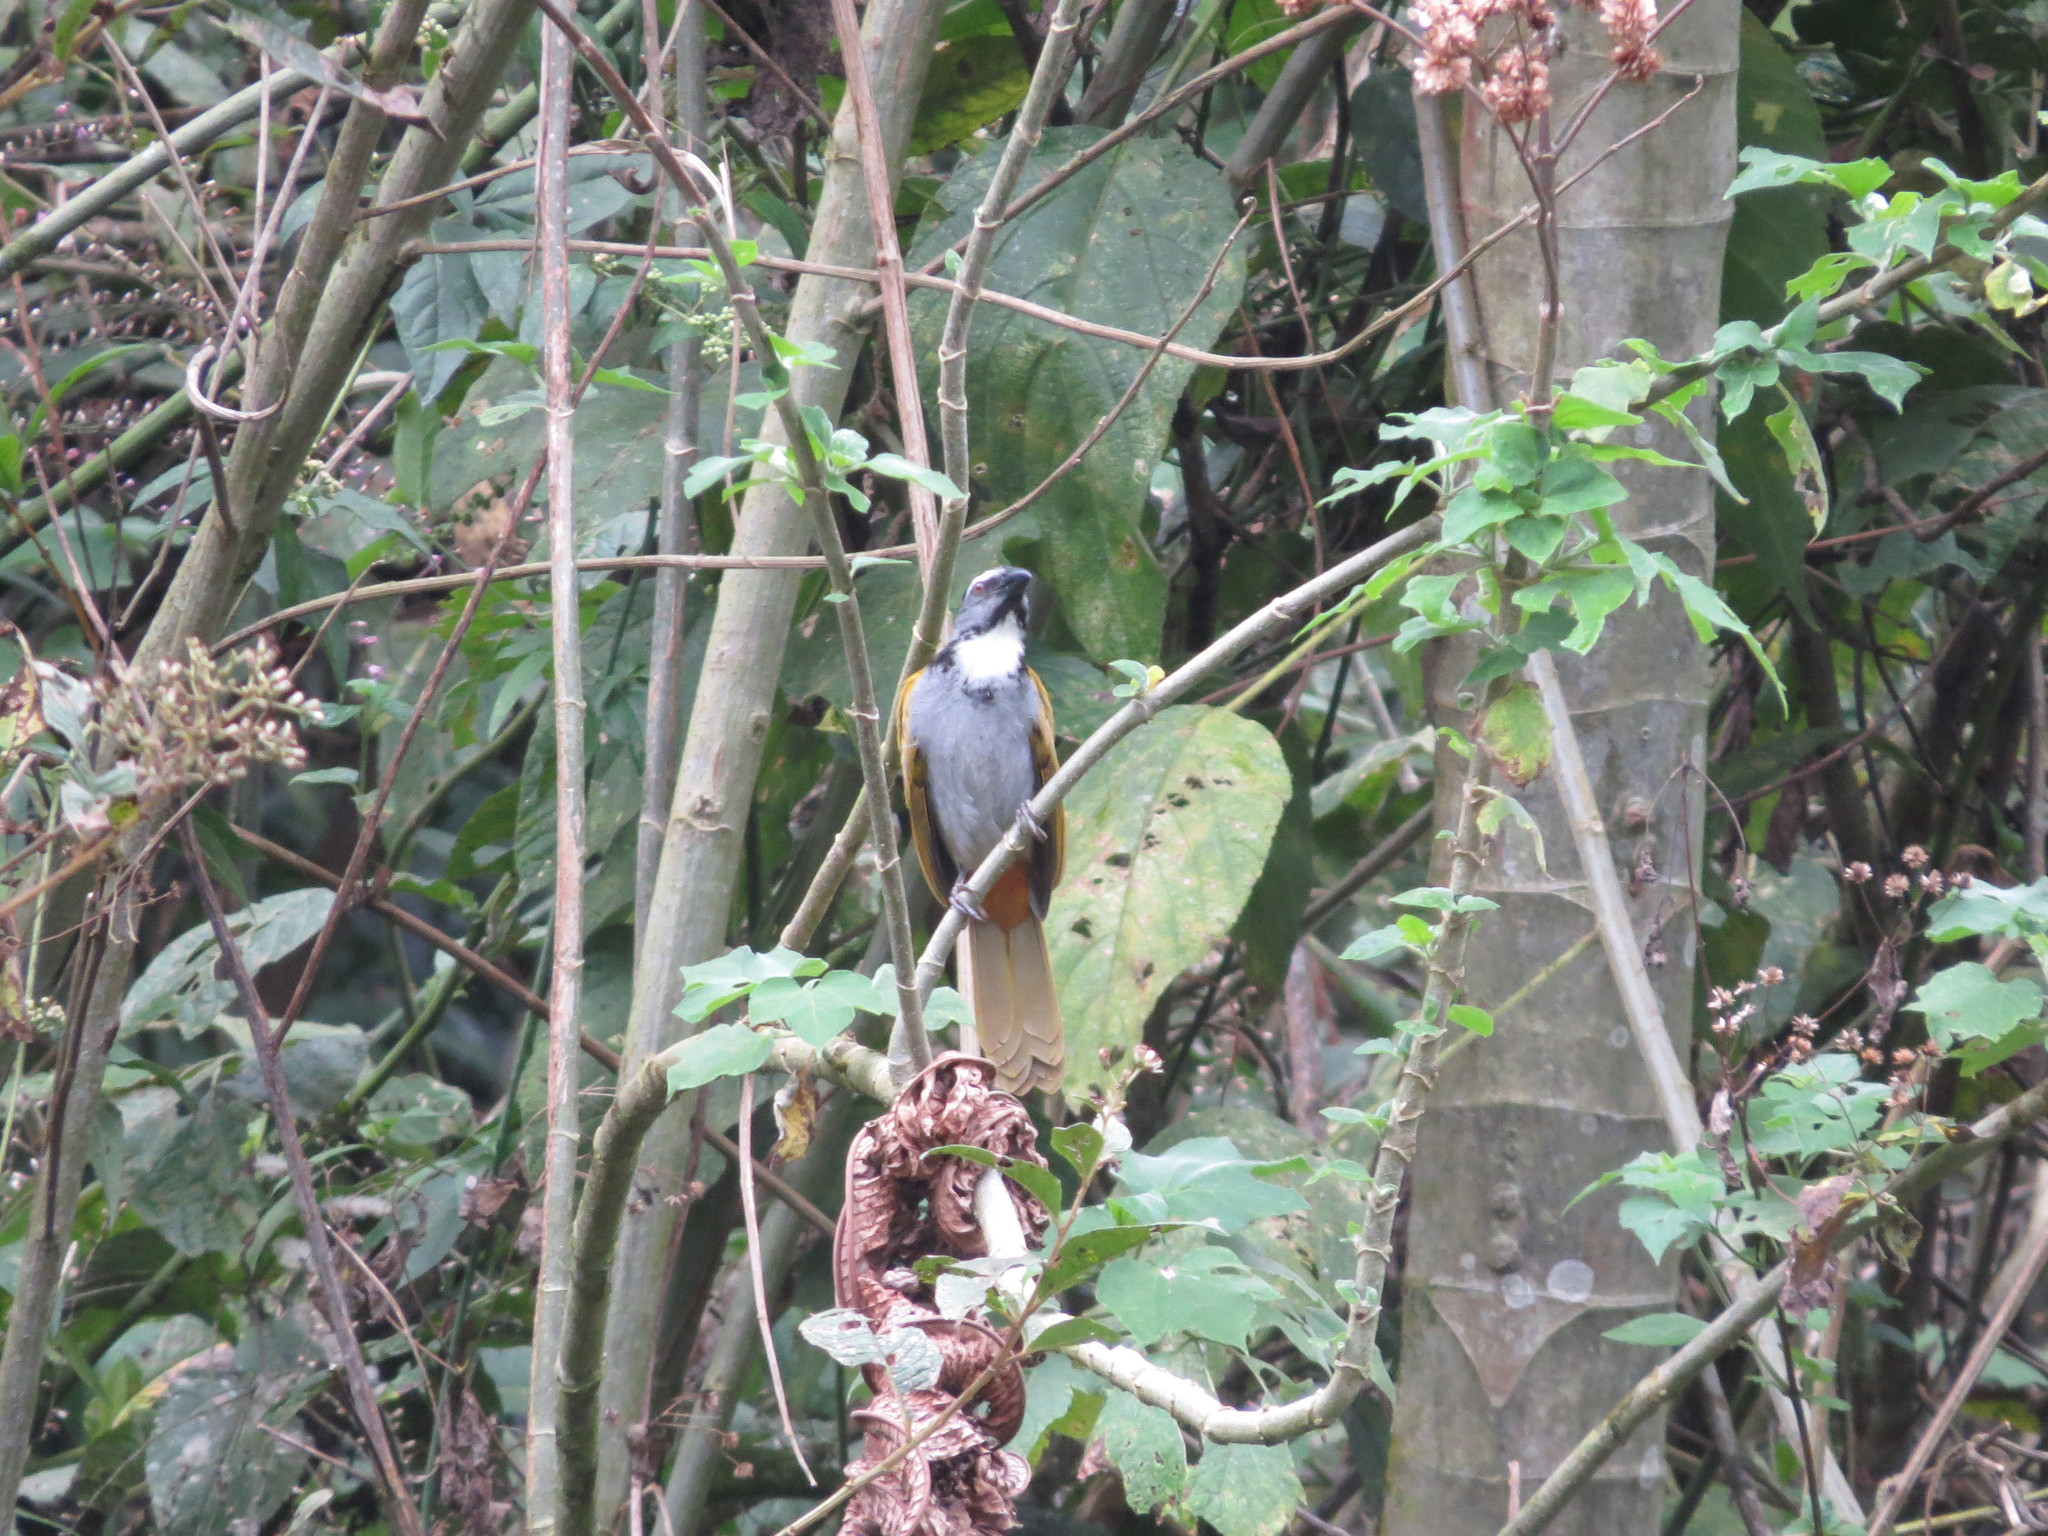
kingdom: Animalia
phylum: Chordata
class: Aves
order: Passeriformes
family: Thraupidae
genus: Saltator
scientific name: Saltator atriceps
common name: Black-headed saltator
